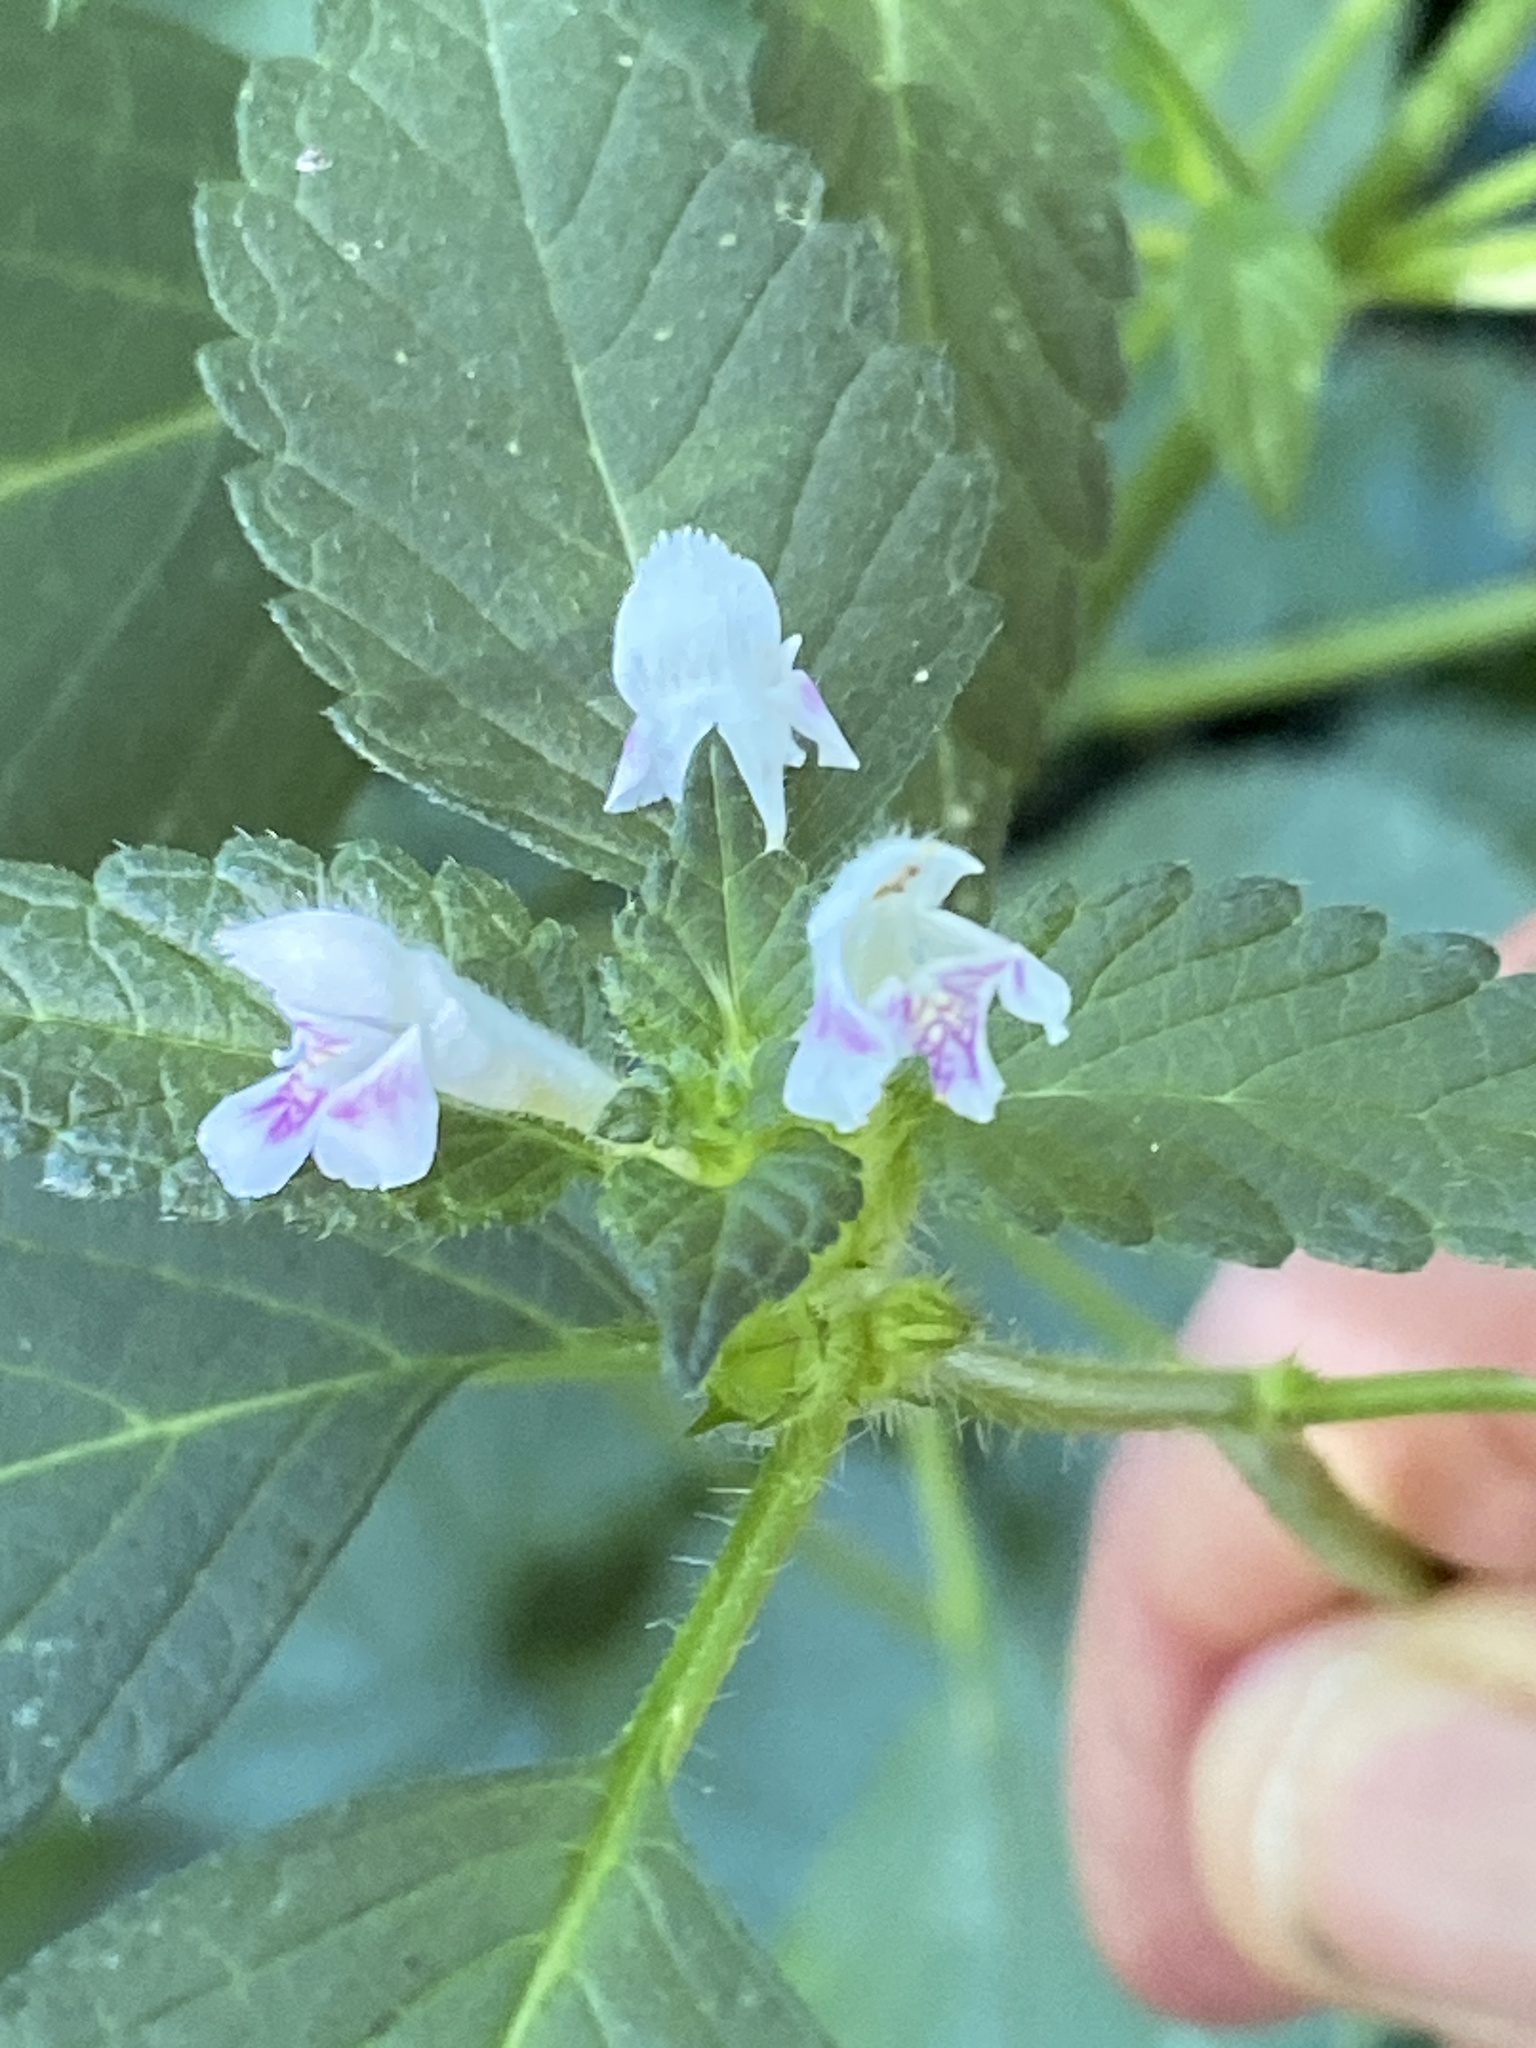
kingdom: Plantae
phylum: Tracheophyta
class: Magnoliopsida
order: Lamiales
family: Lamiaceae
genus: Galeopsis
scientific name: Galeopsis tetrahit
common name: Common hemp-nettle
